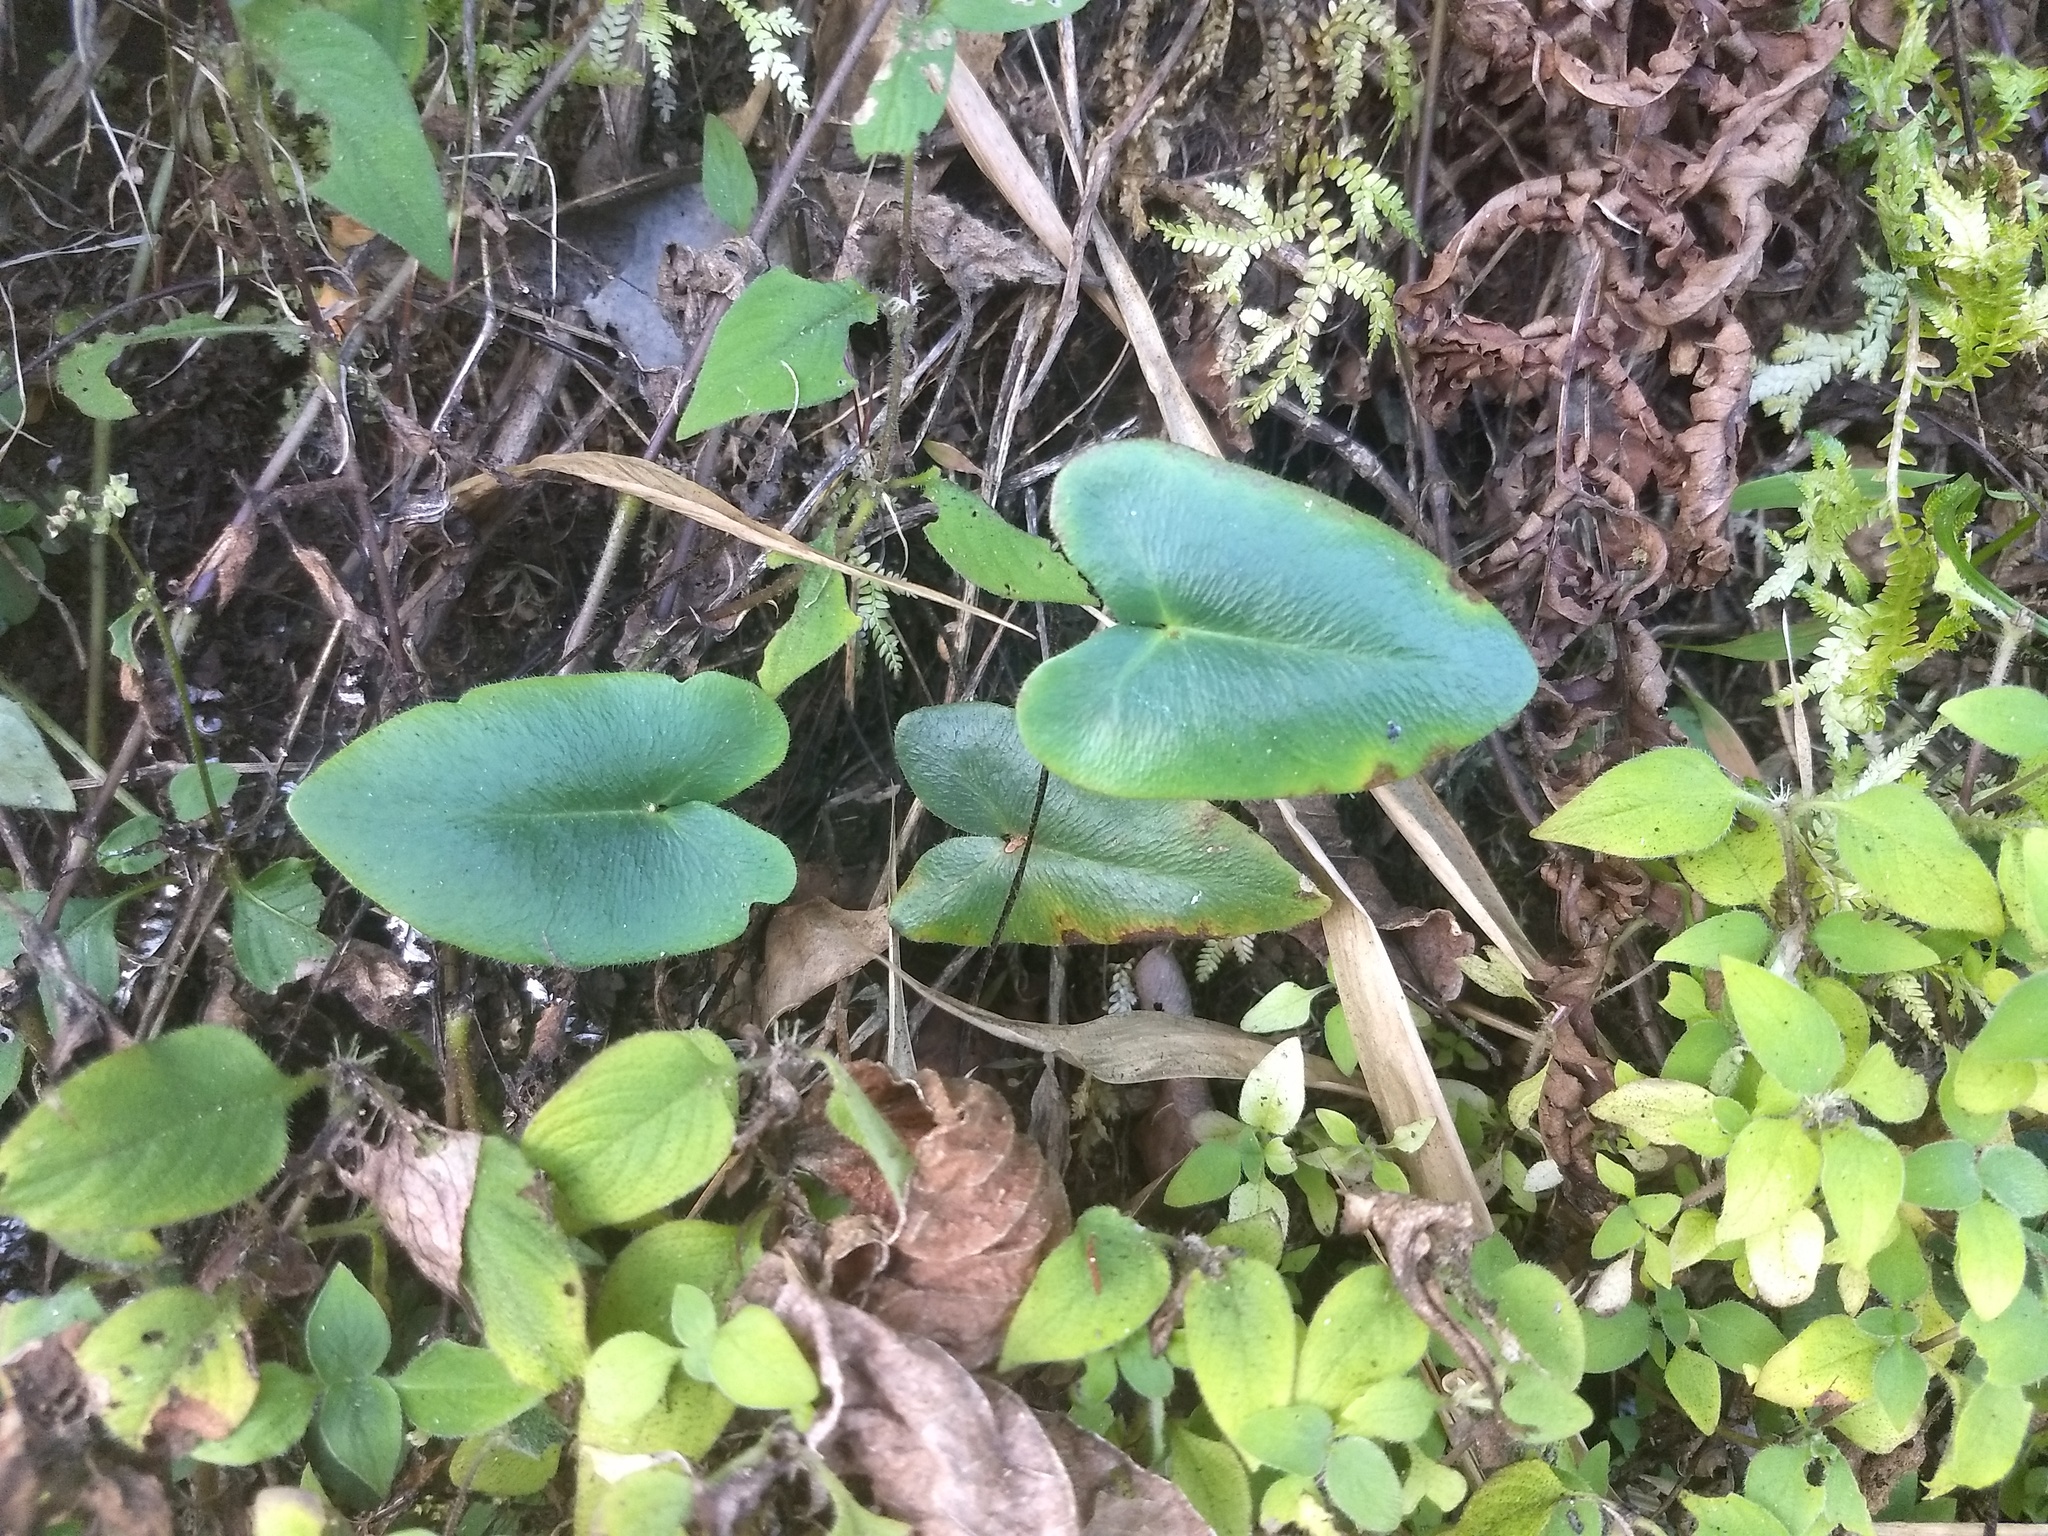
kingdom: Plantae
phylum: Tracheophyta
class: Polypodiopsida
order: Polypodiales
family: Pteridaceae
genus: Mickelopteris
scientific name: Mickelopteris cordata
